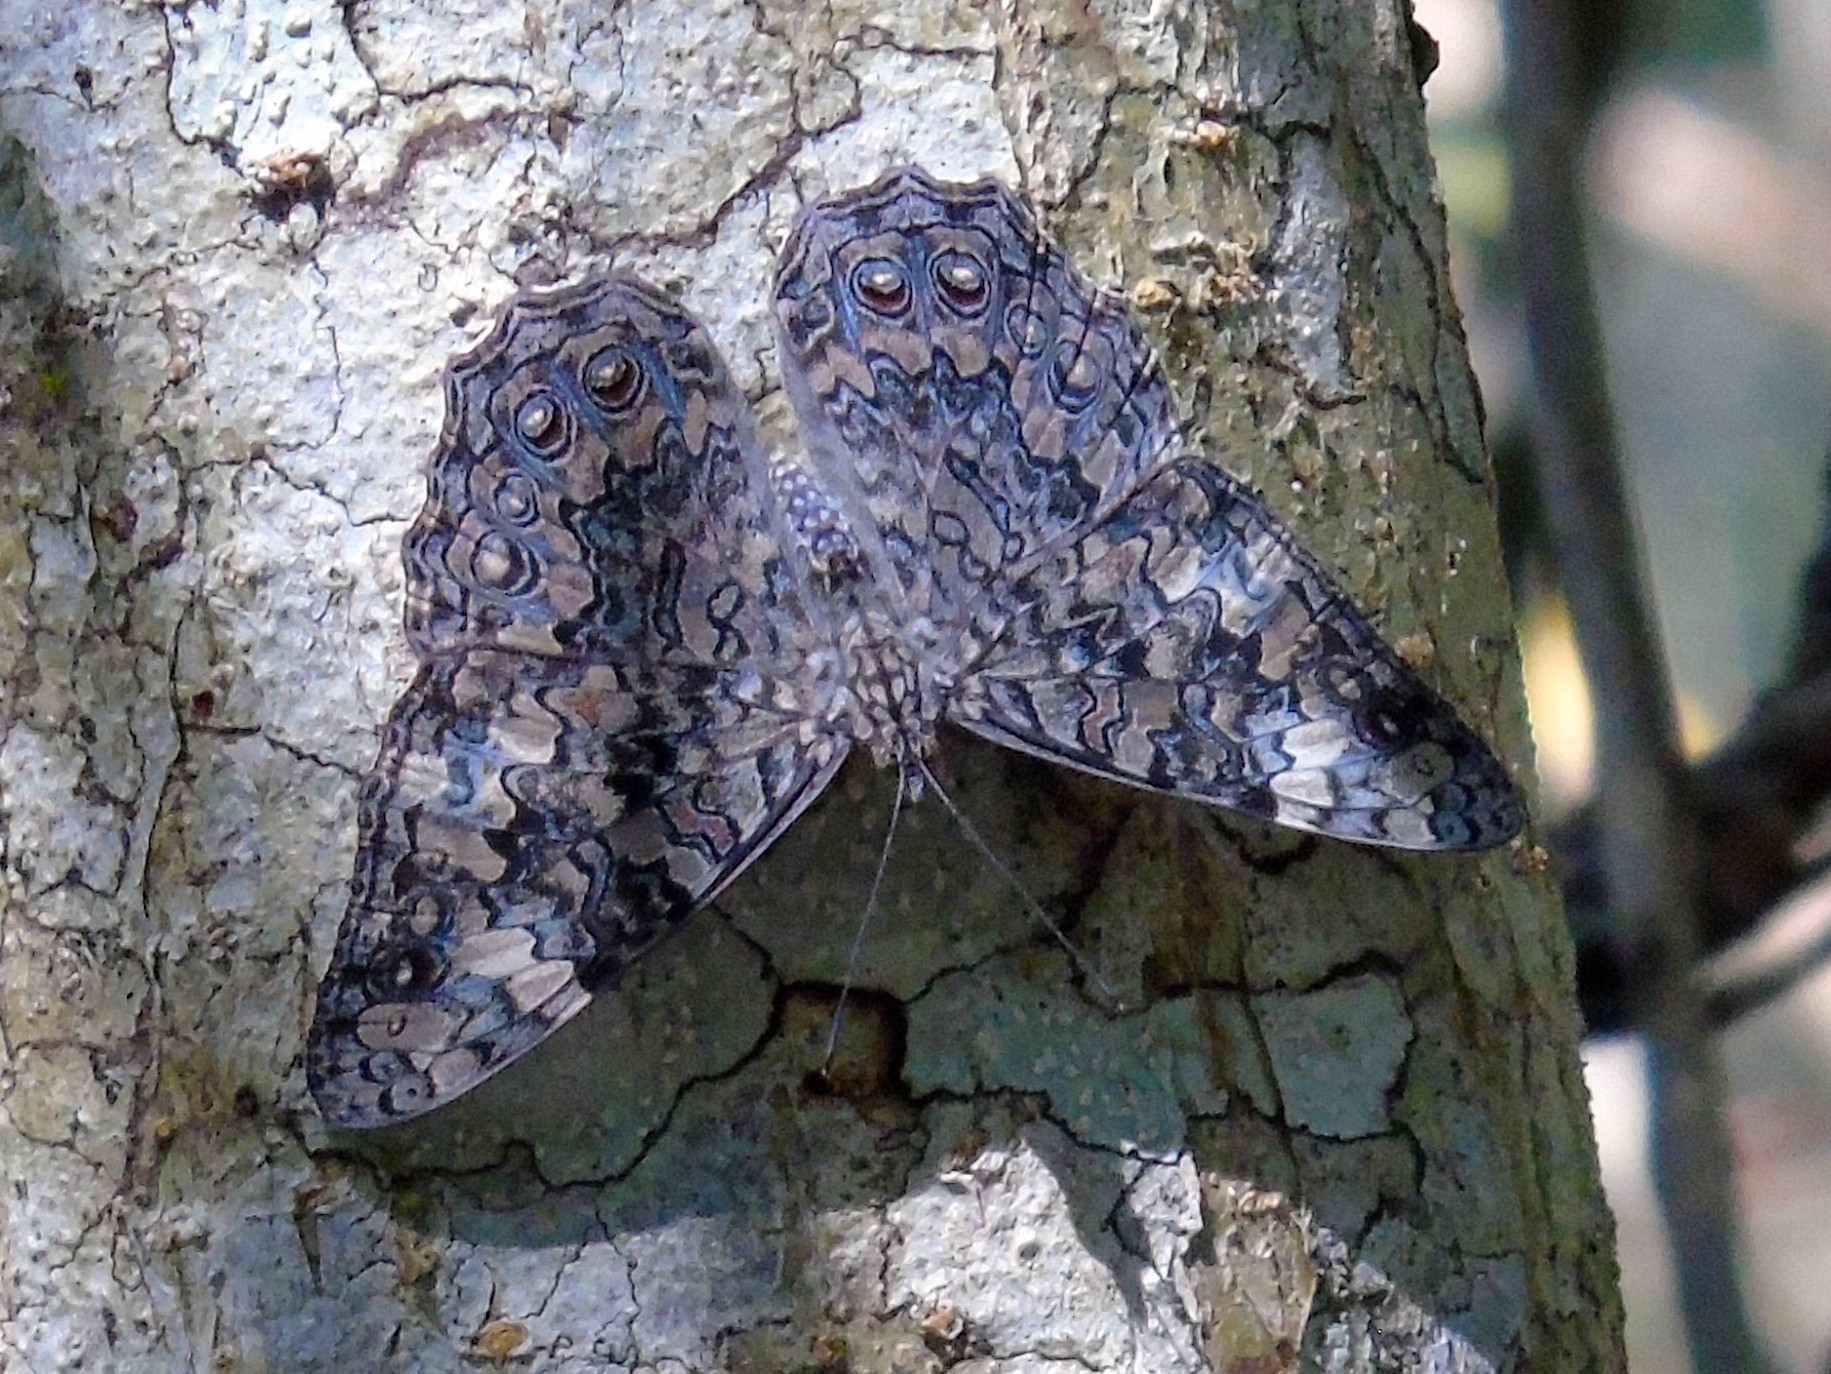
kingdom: Animalia
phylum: Arthropoda
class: Insecta
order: Lepidoptera
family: Nymphalidae
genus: Hamadryas
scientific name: Hamadryas februa
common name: Gray cracker
